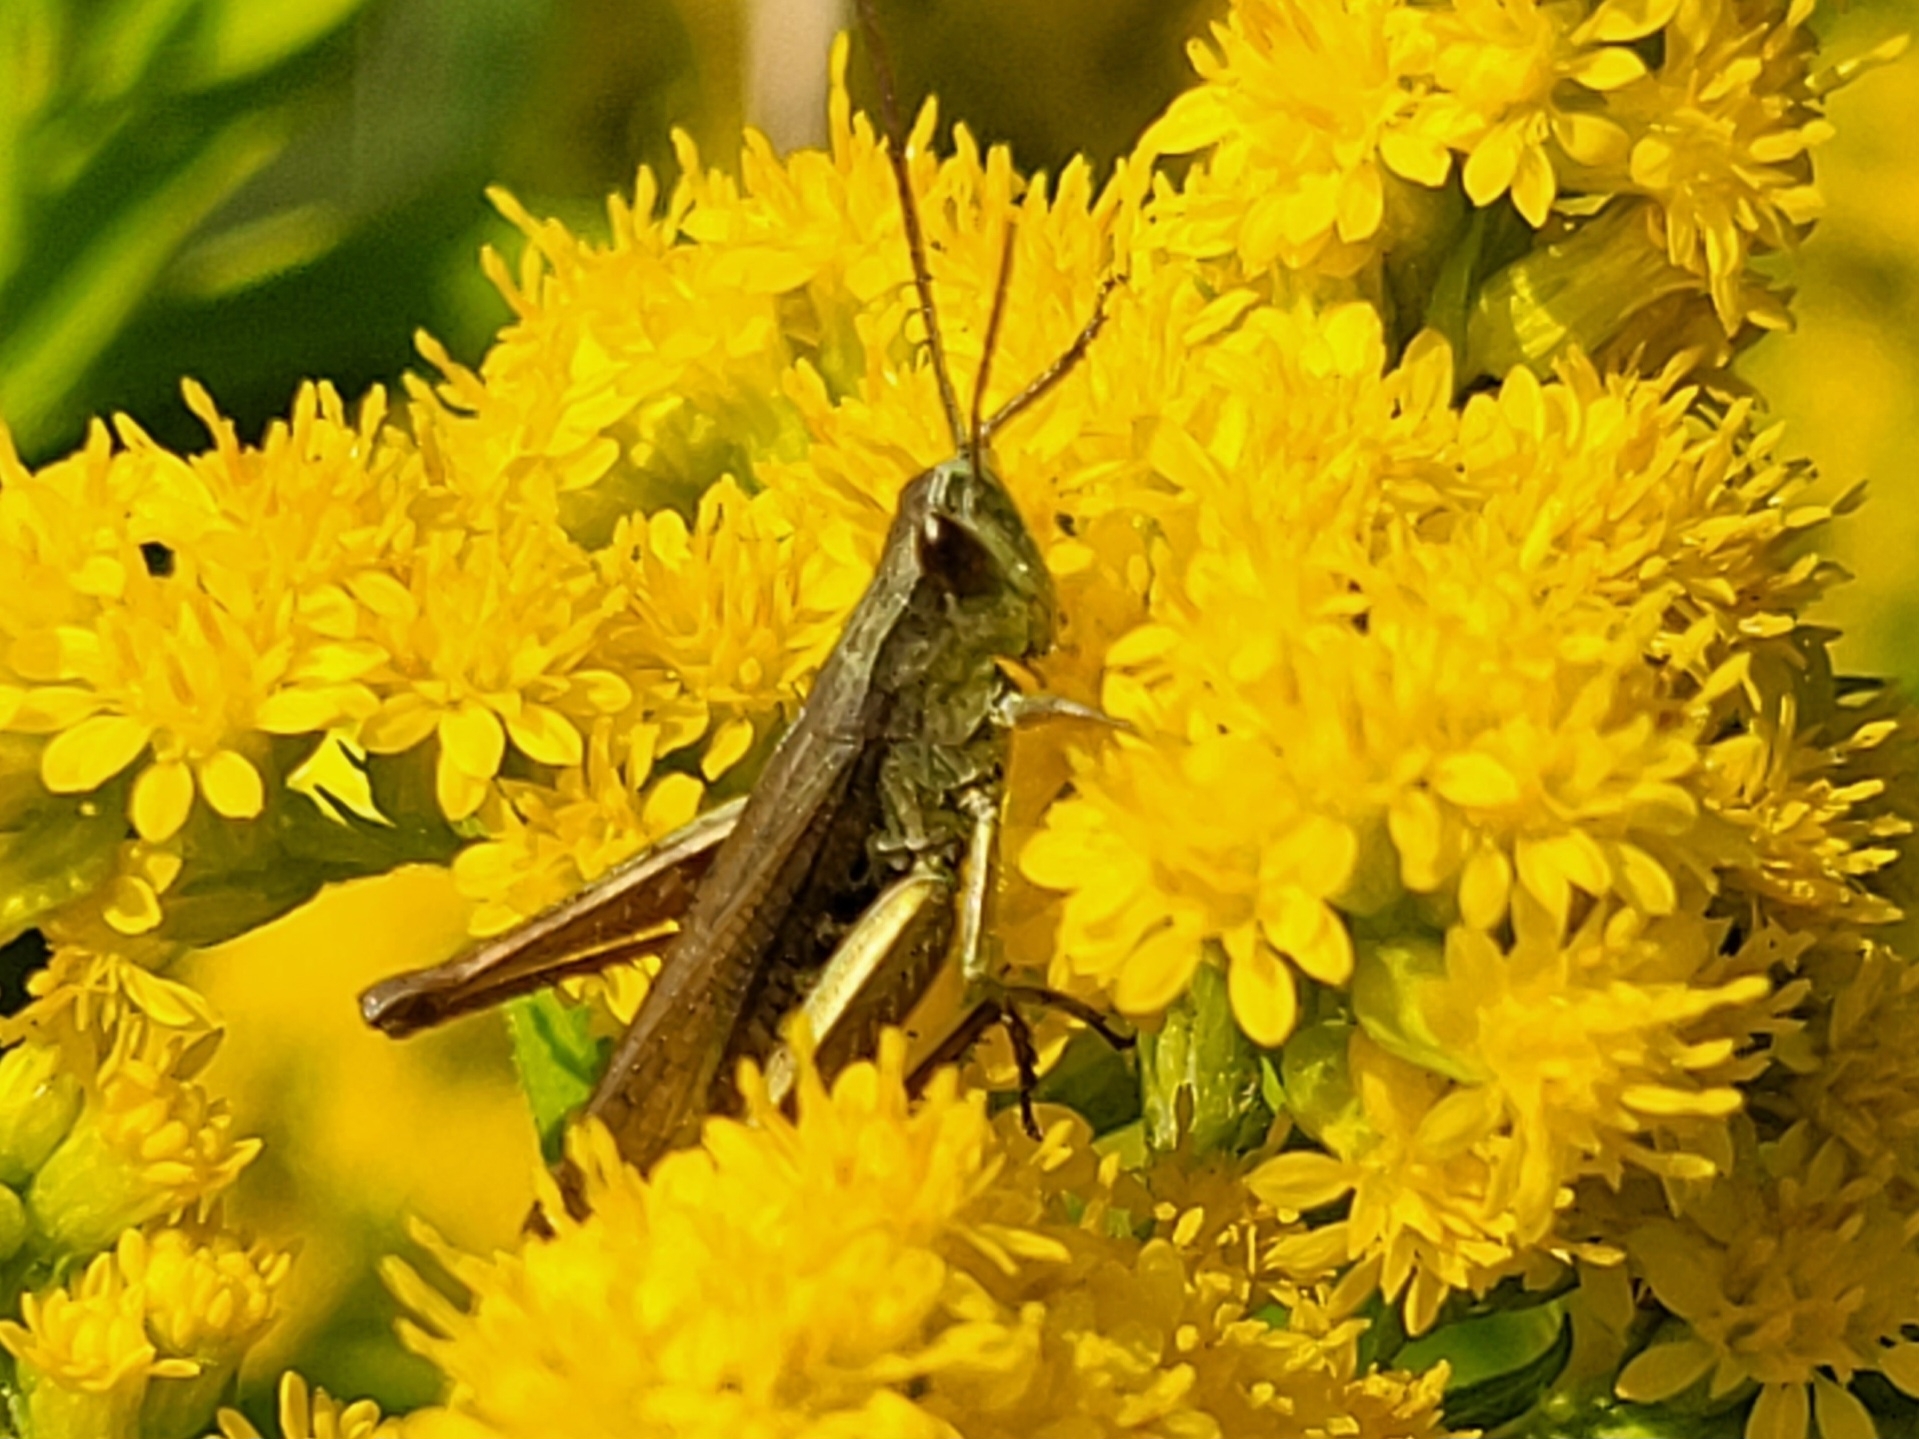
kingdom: Animalia
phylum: Arthropoda
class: Insecta
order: Orthoptera
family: Acrididae
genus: Chorthippus
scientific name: Chorthippus dorsatus
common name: Steppe grasshopper
